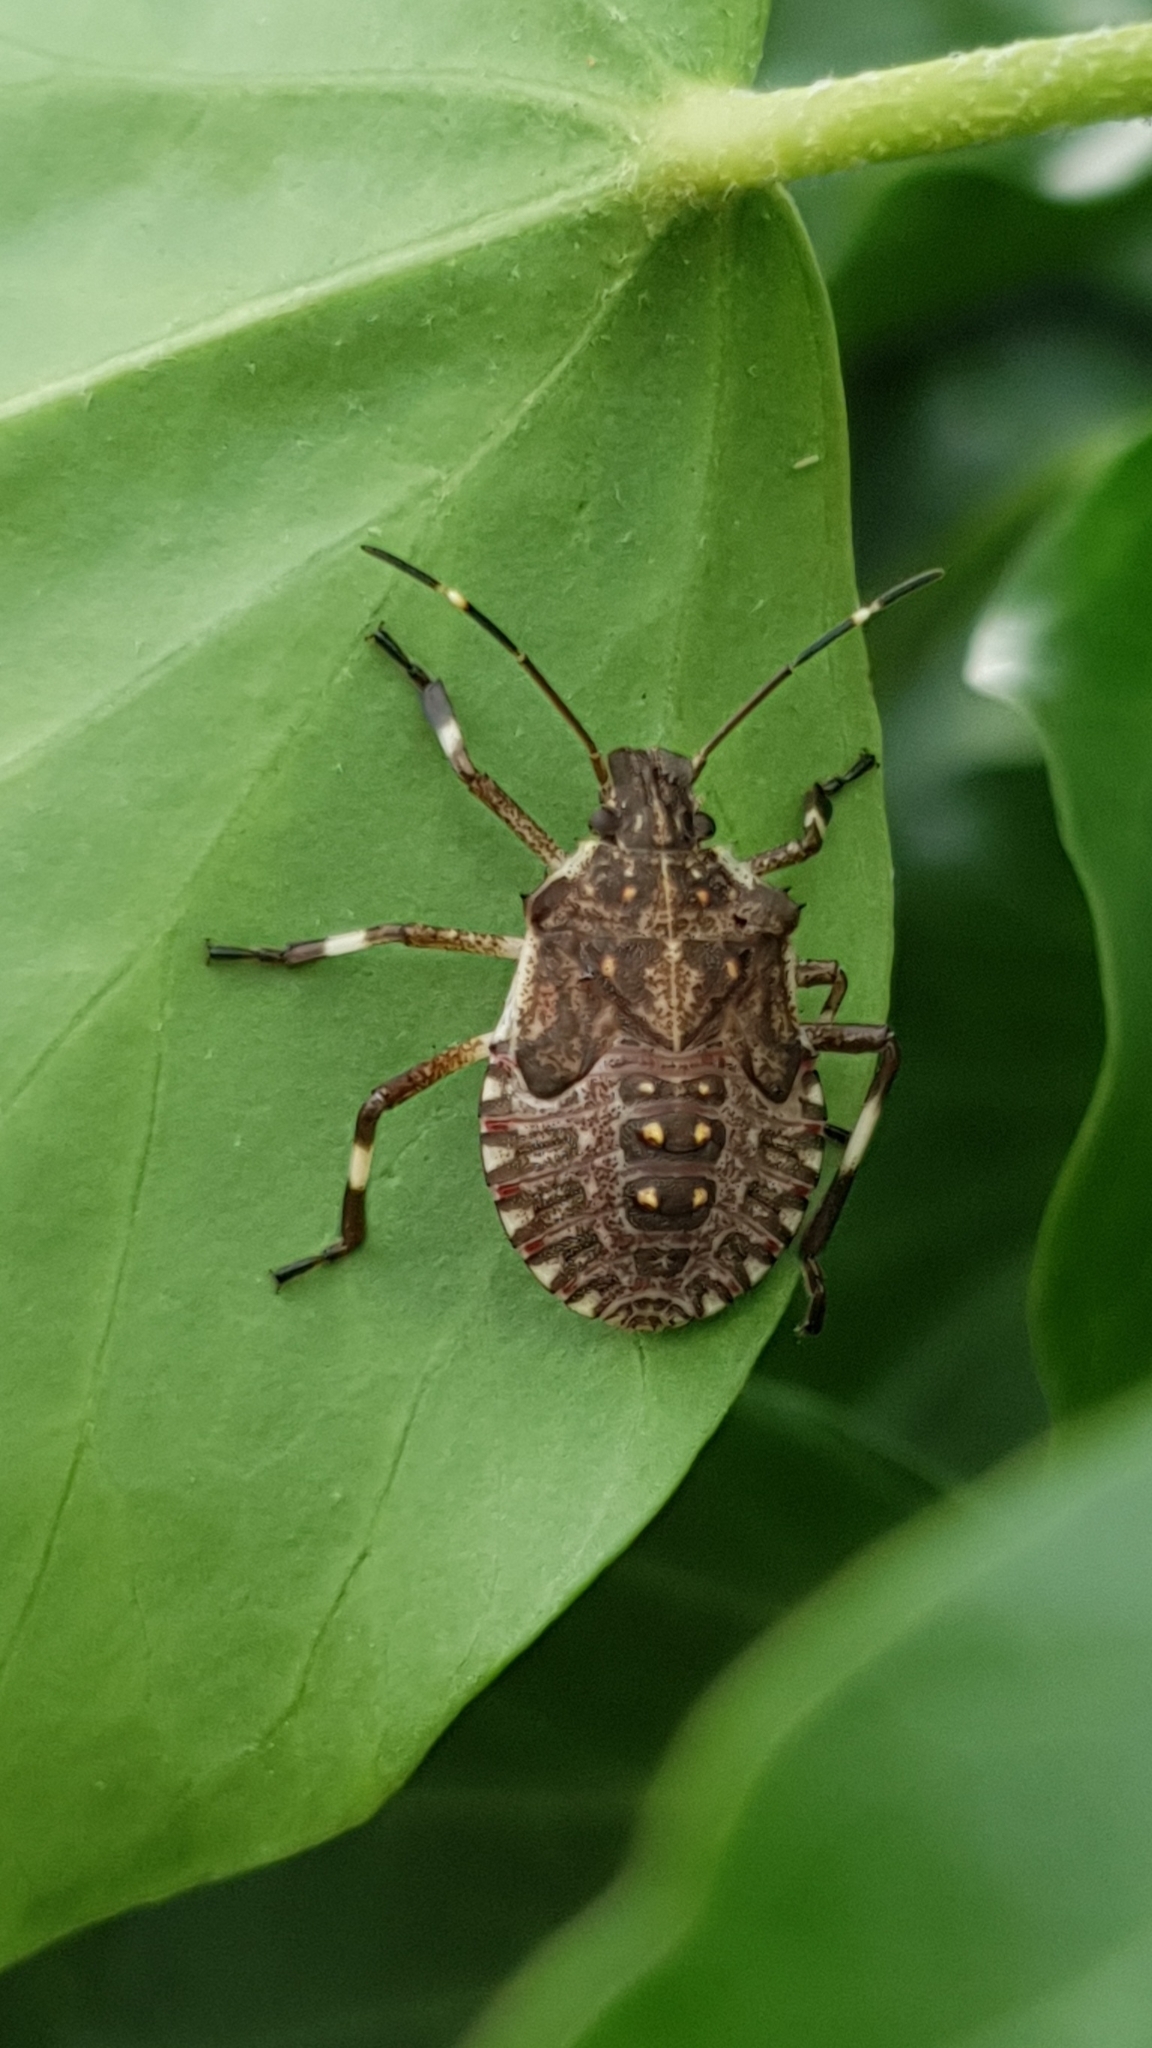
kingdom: Animalia
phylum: Arthropoda
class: Insecta
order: Hemiptera
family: Pentatomidae
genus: Halyomorpha
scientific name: Halyomorpha halys
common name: Brown marmorated stink bug
